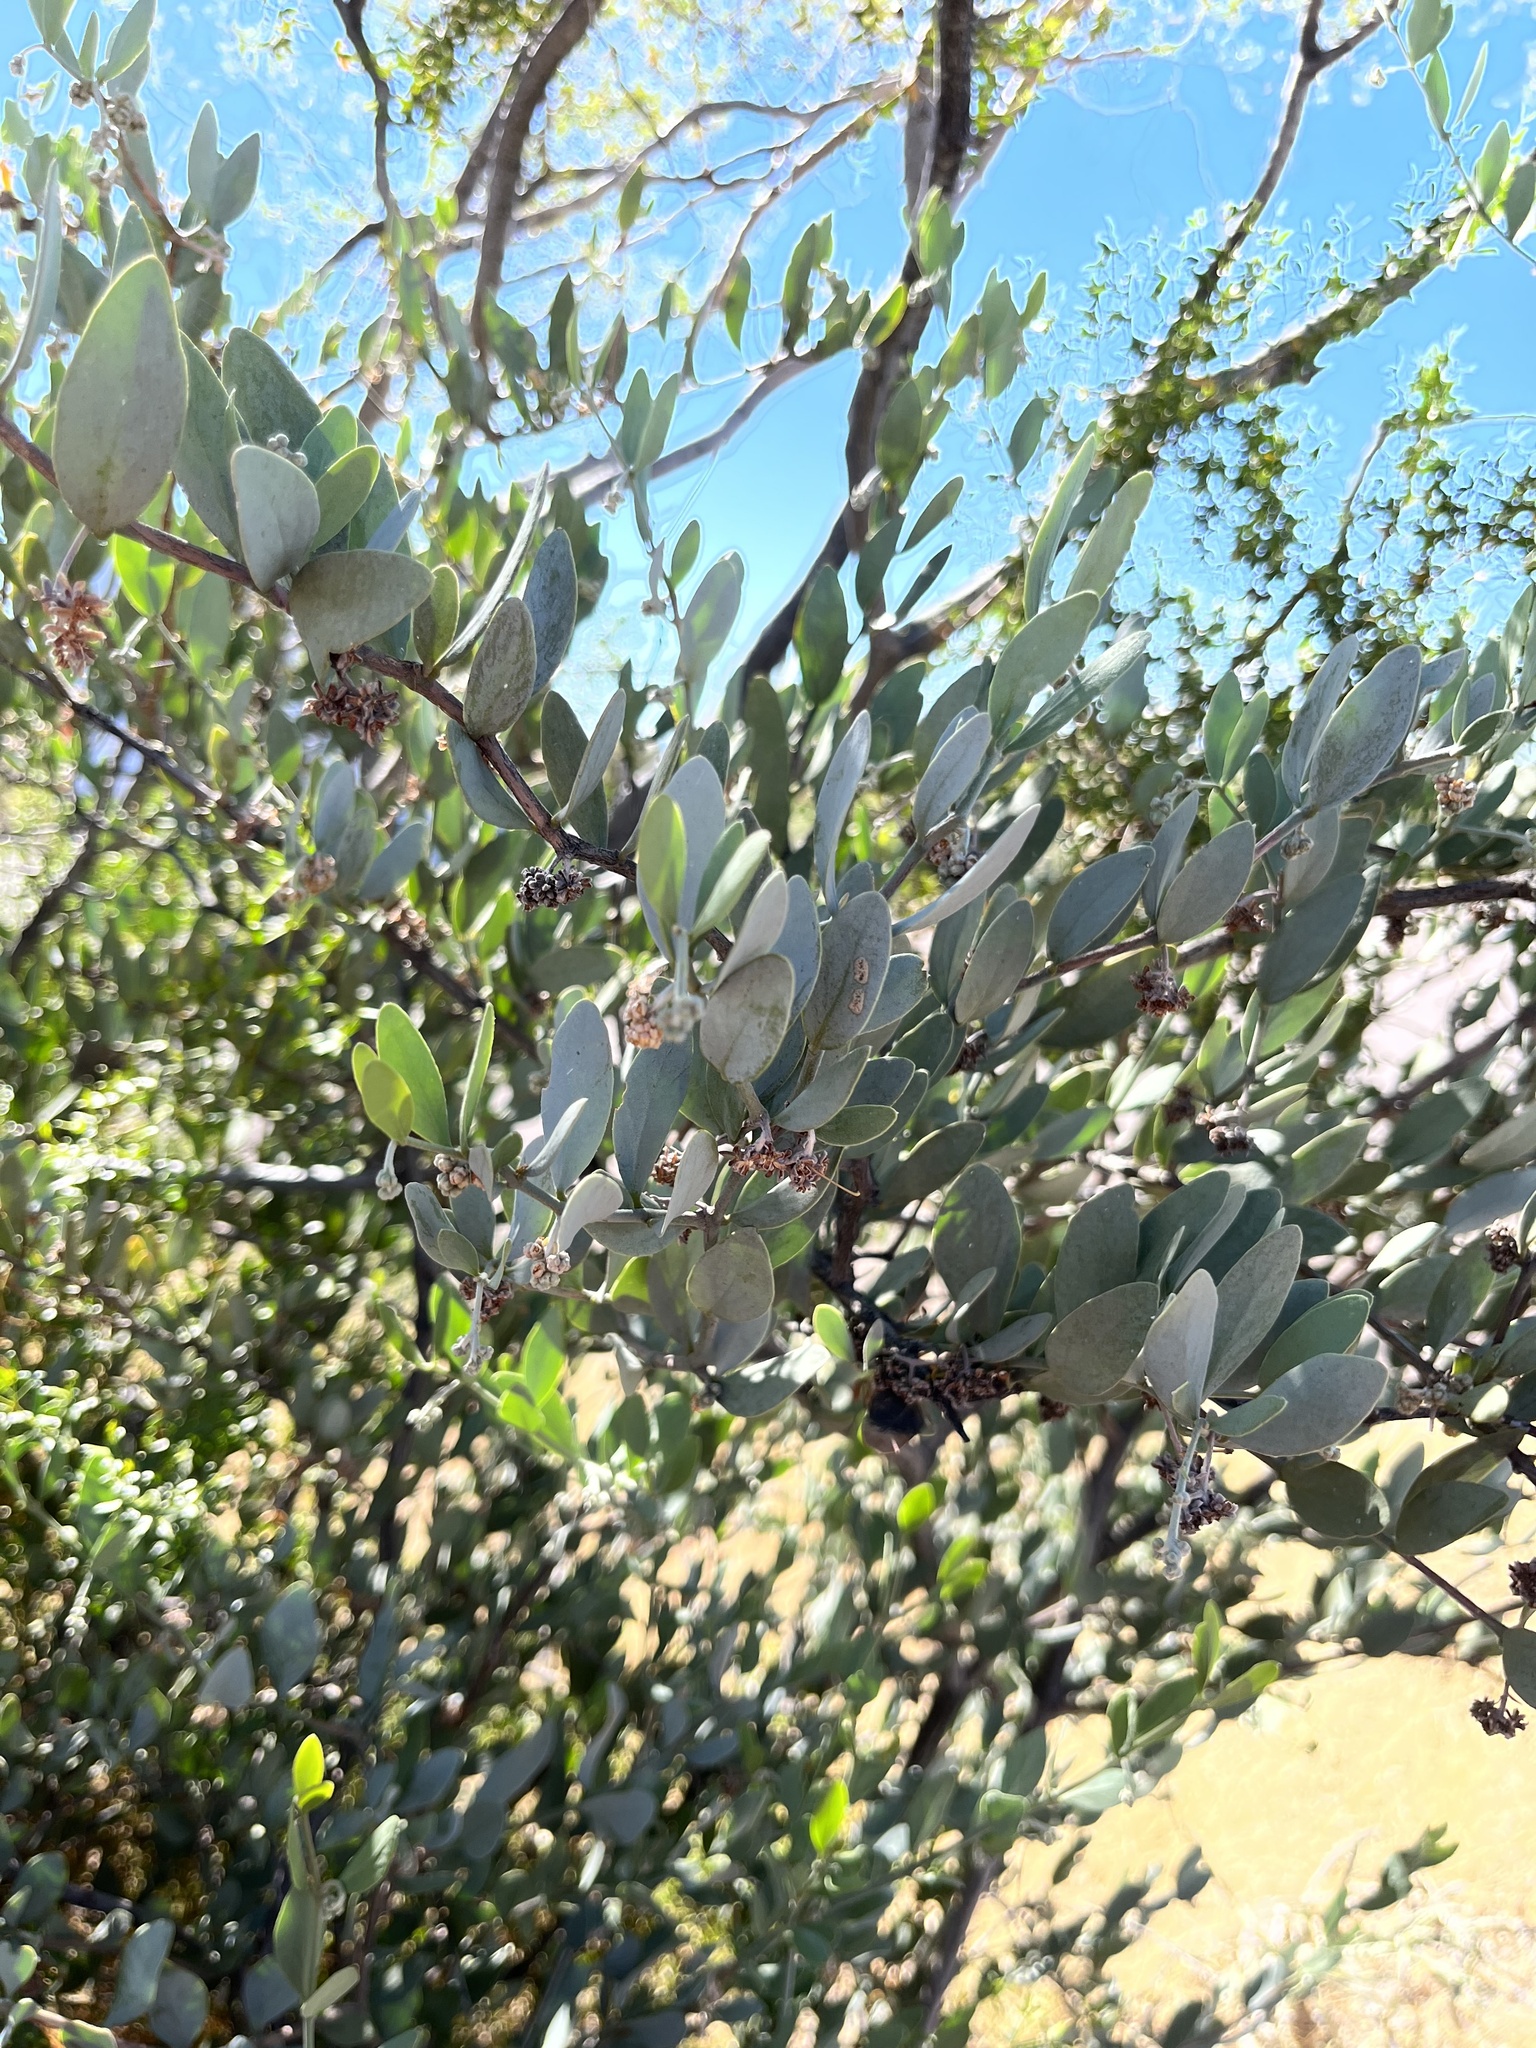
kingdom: Plantae
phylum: Tracheophyta
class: Magnoliopsida
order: Caryophyllales
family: Simmondsiaceae
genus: Simmondsia
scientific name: Simmondsia chinensis
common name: Jojoba
